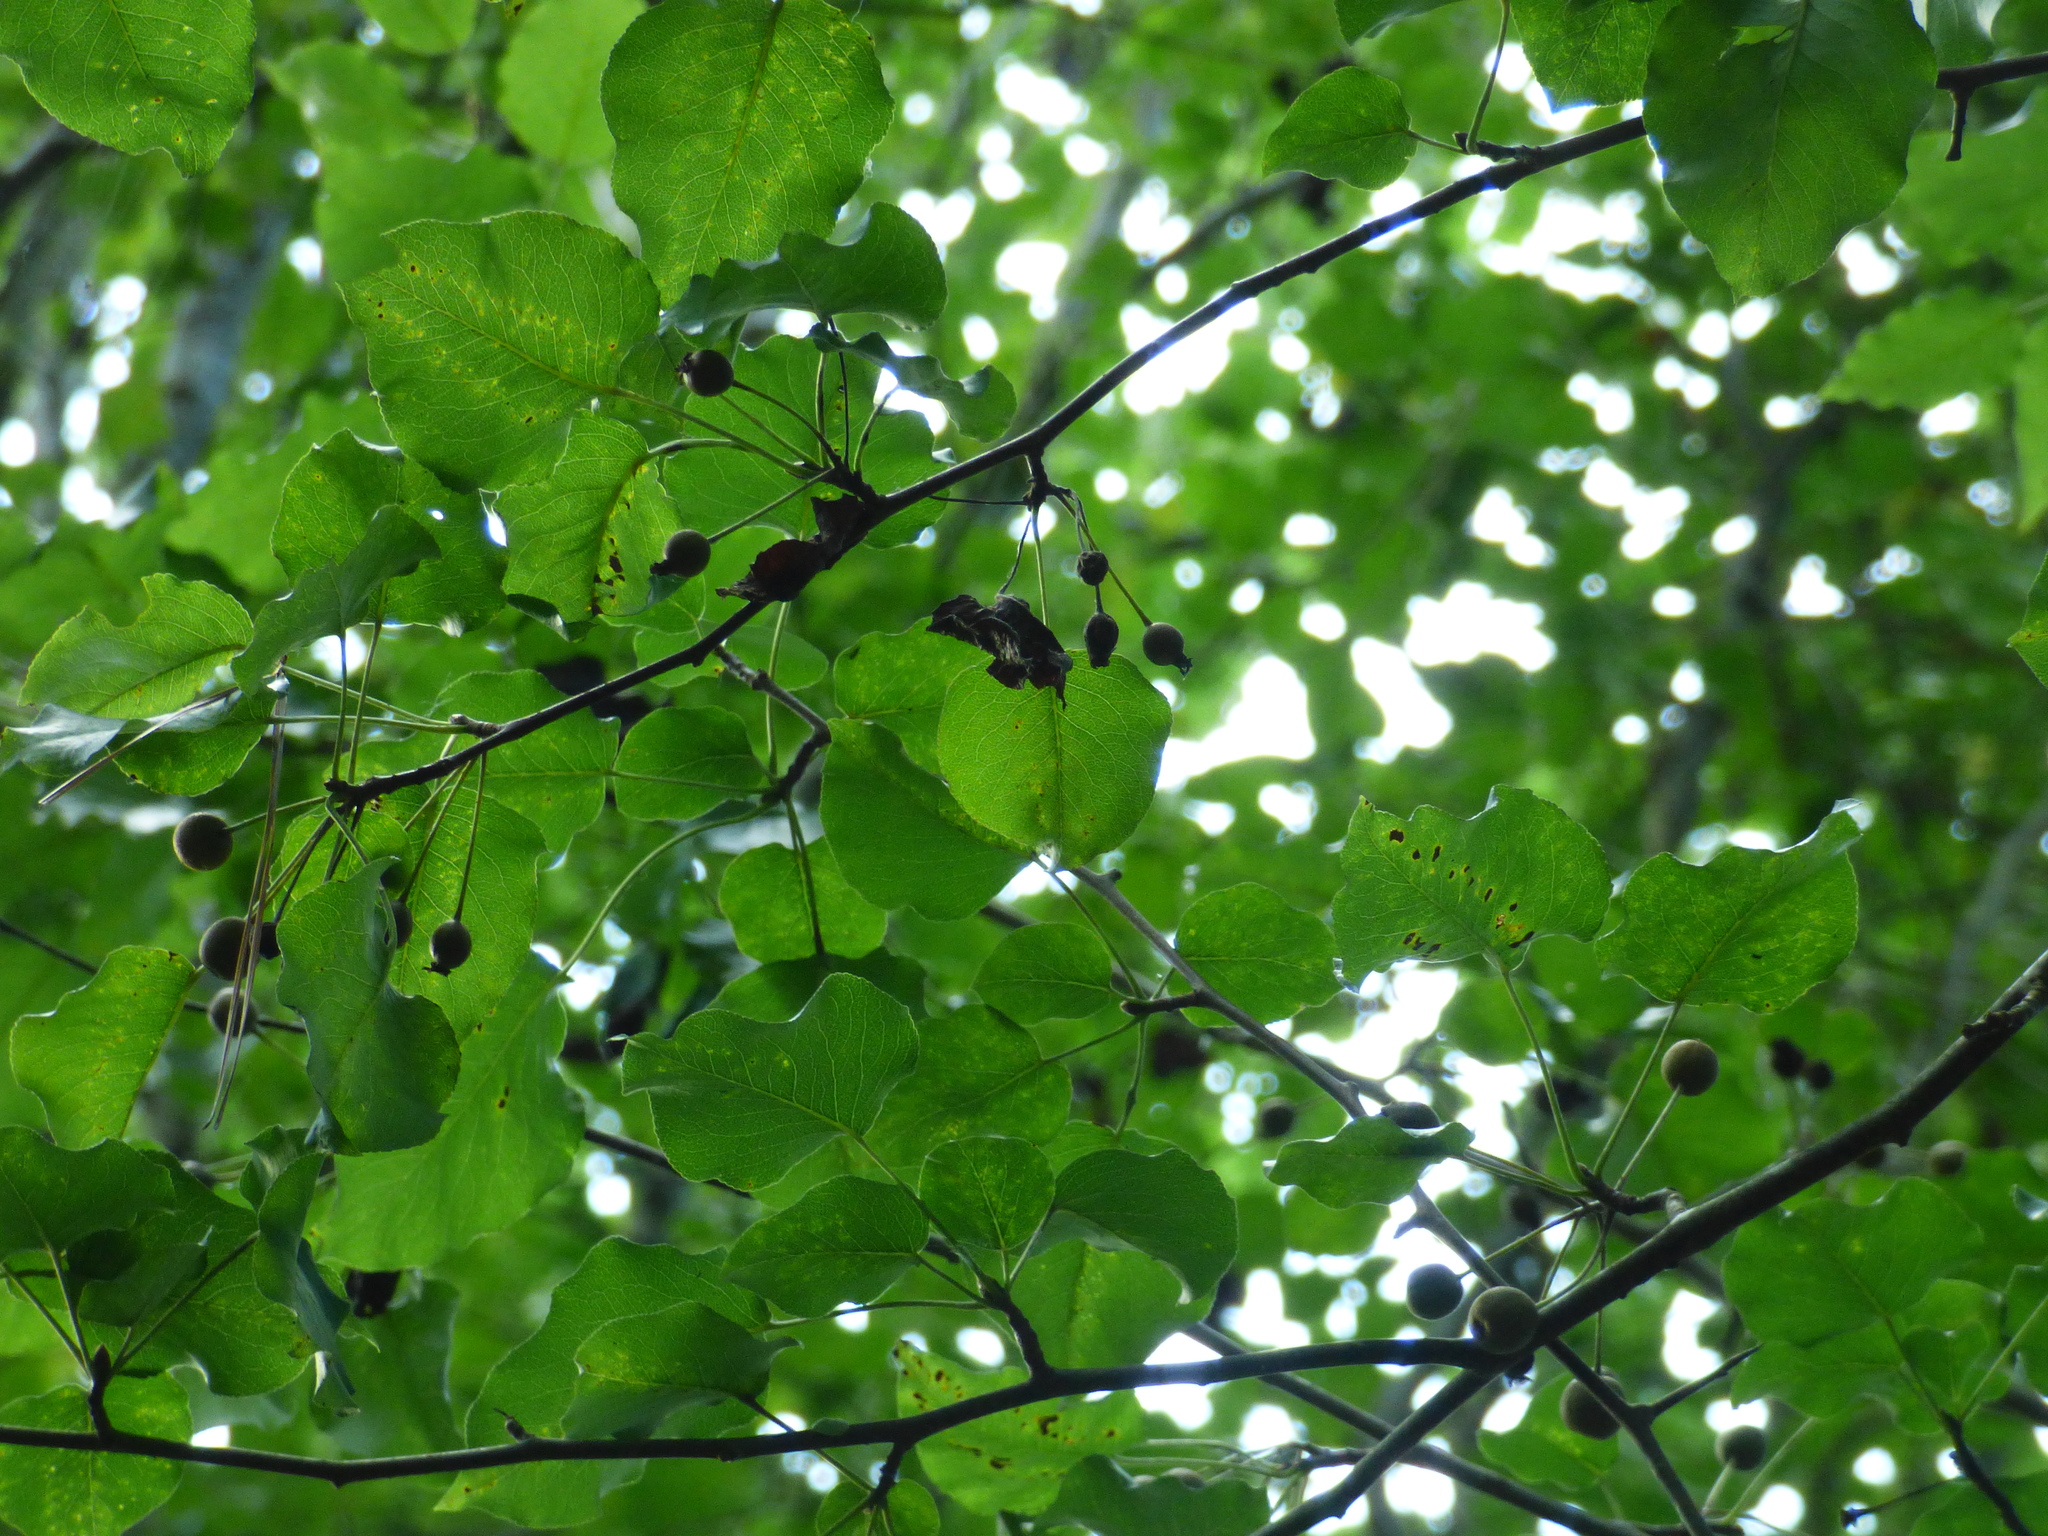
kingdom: Plantae
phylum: Tracheophyta
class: Magnoliopsida
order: Rosales
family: Rosaceae
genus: Pyrus
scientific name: Pyrus calleryana
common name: Callery pear
